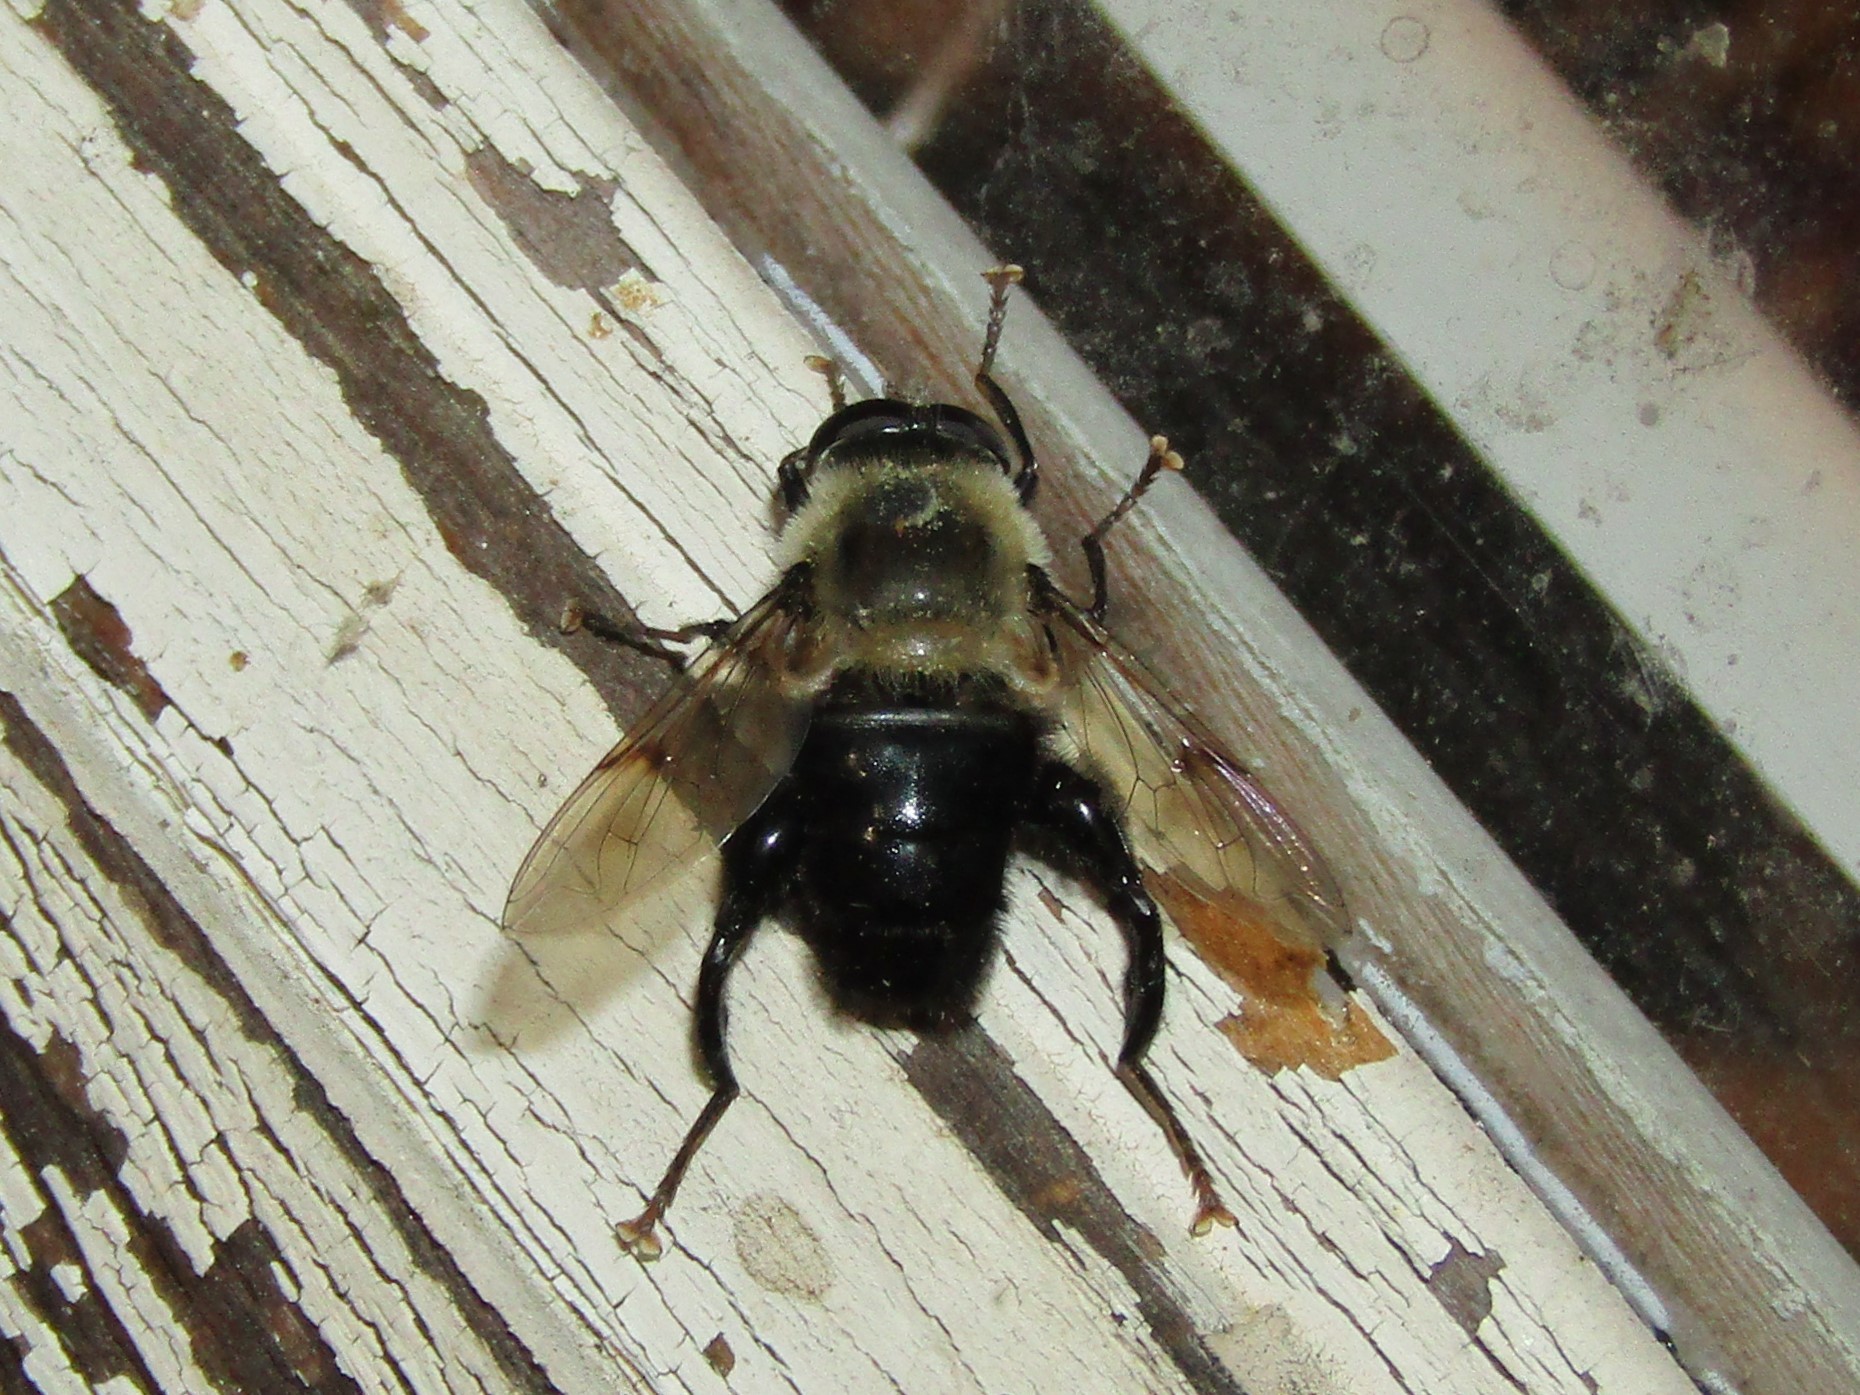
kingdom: Animalia
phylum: Arthropoda
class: Insecta
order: Diptera
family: Syrphidae
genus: Imatisma
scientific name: Imatisma bautias
